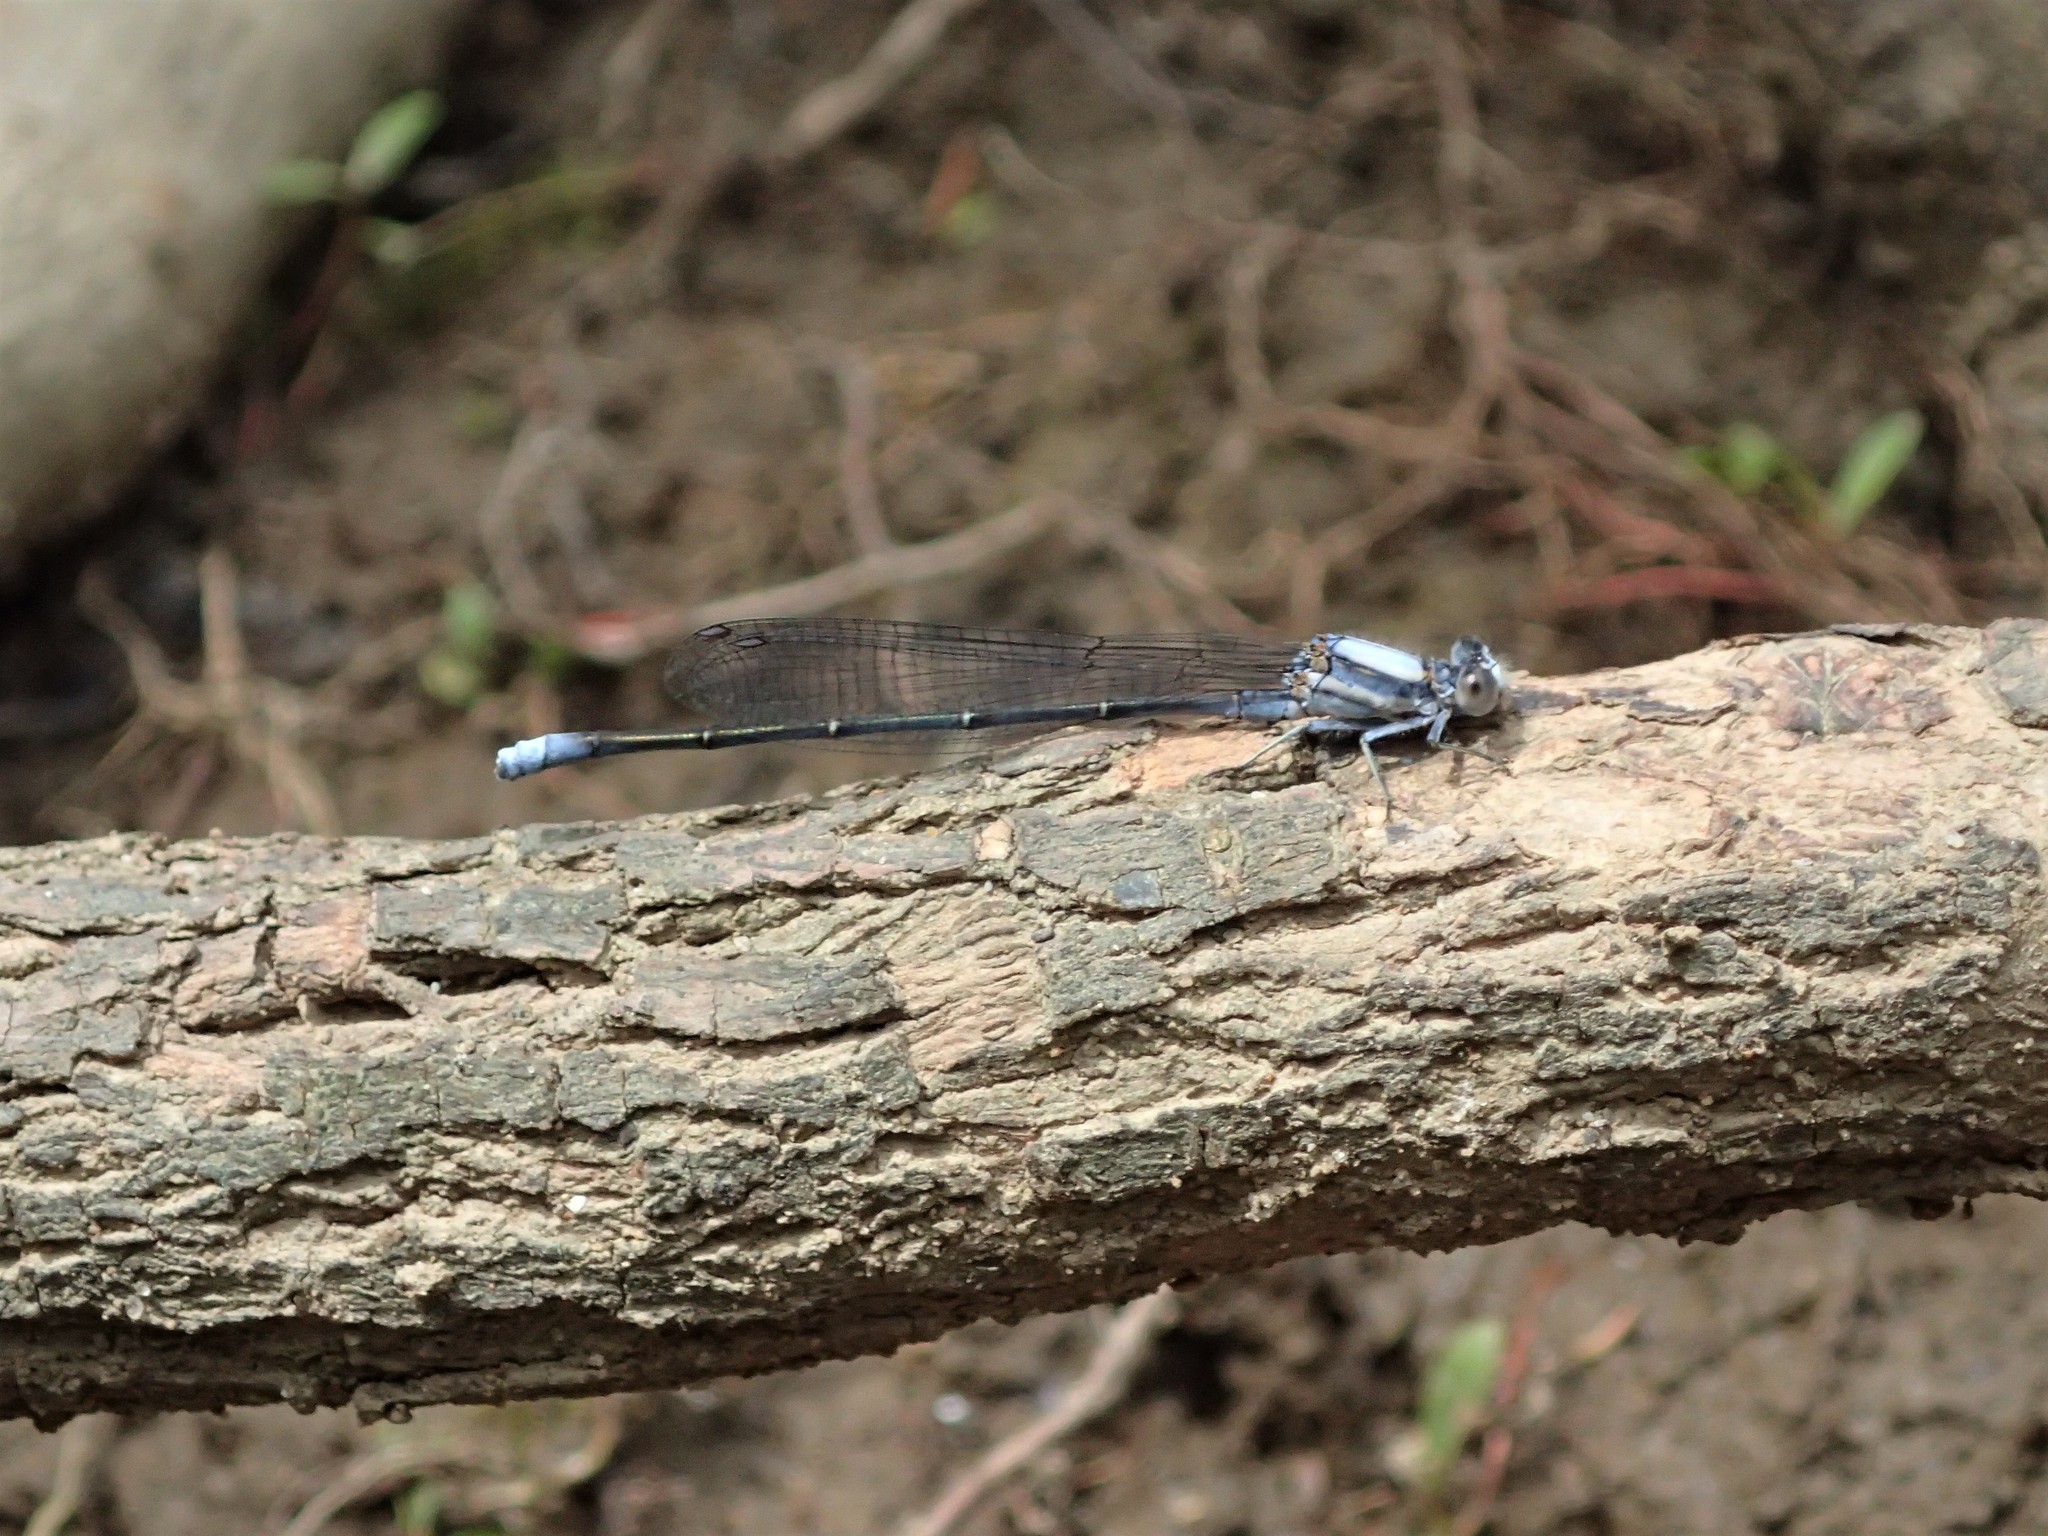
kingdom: Animalia
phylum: Arthropoda
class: Insecta
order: Odonata
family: Coenagrionidae
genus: Argia
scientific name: Argia moesta
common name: Powdered dancer
